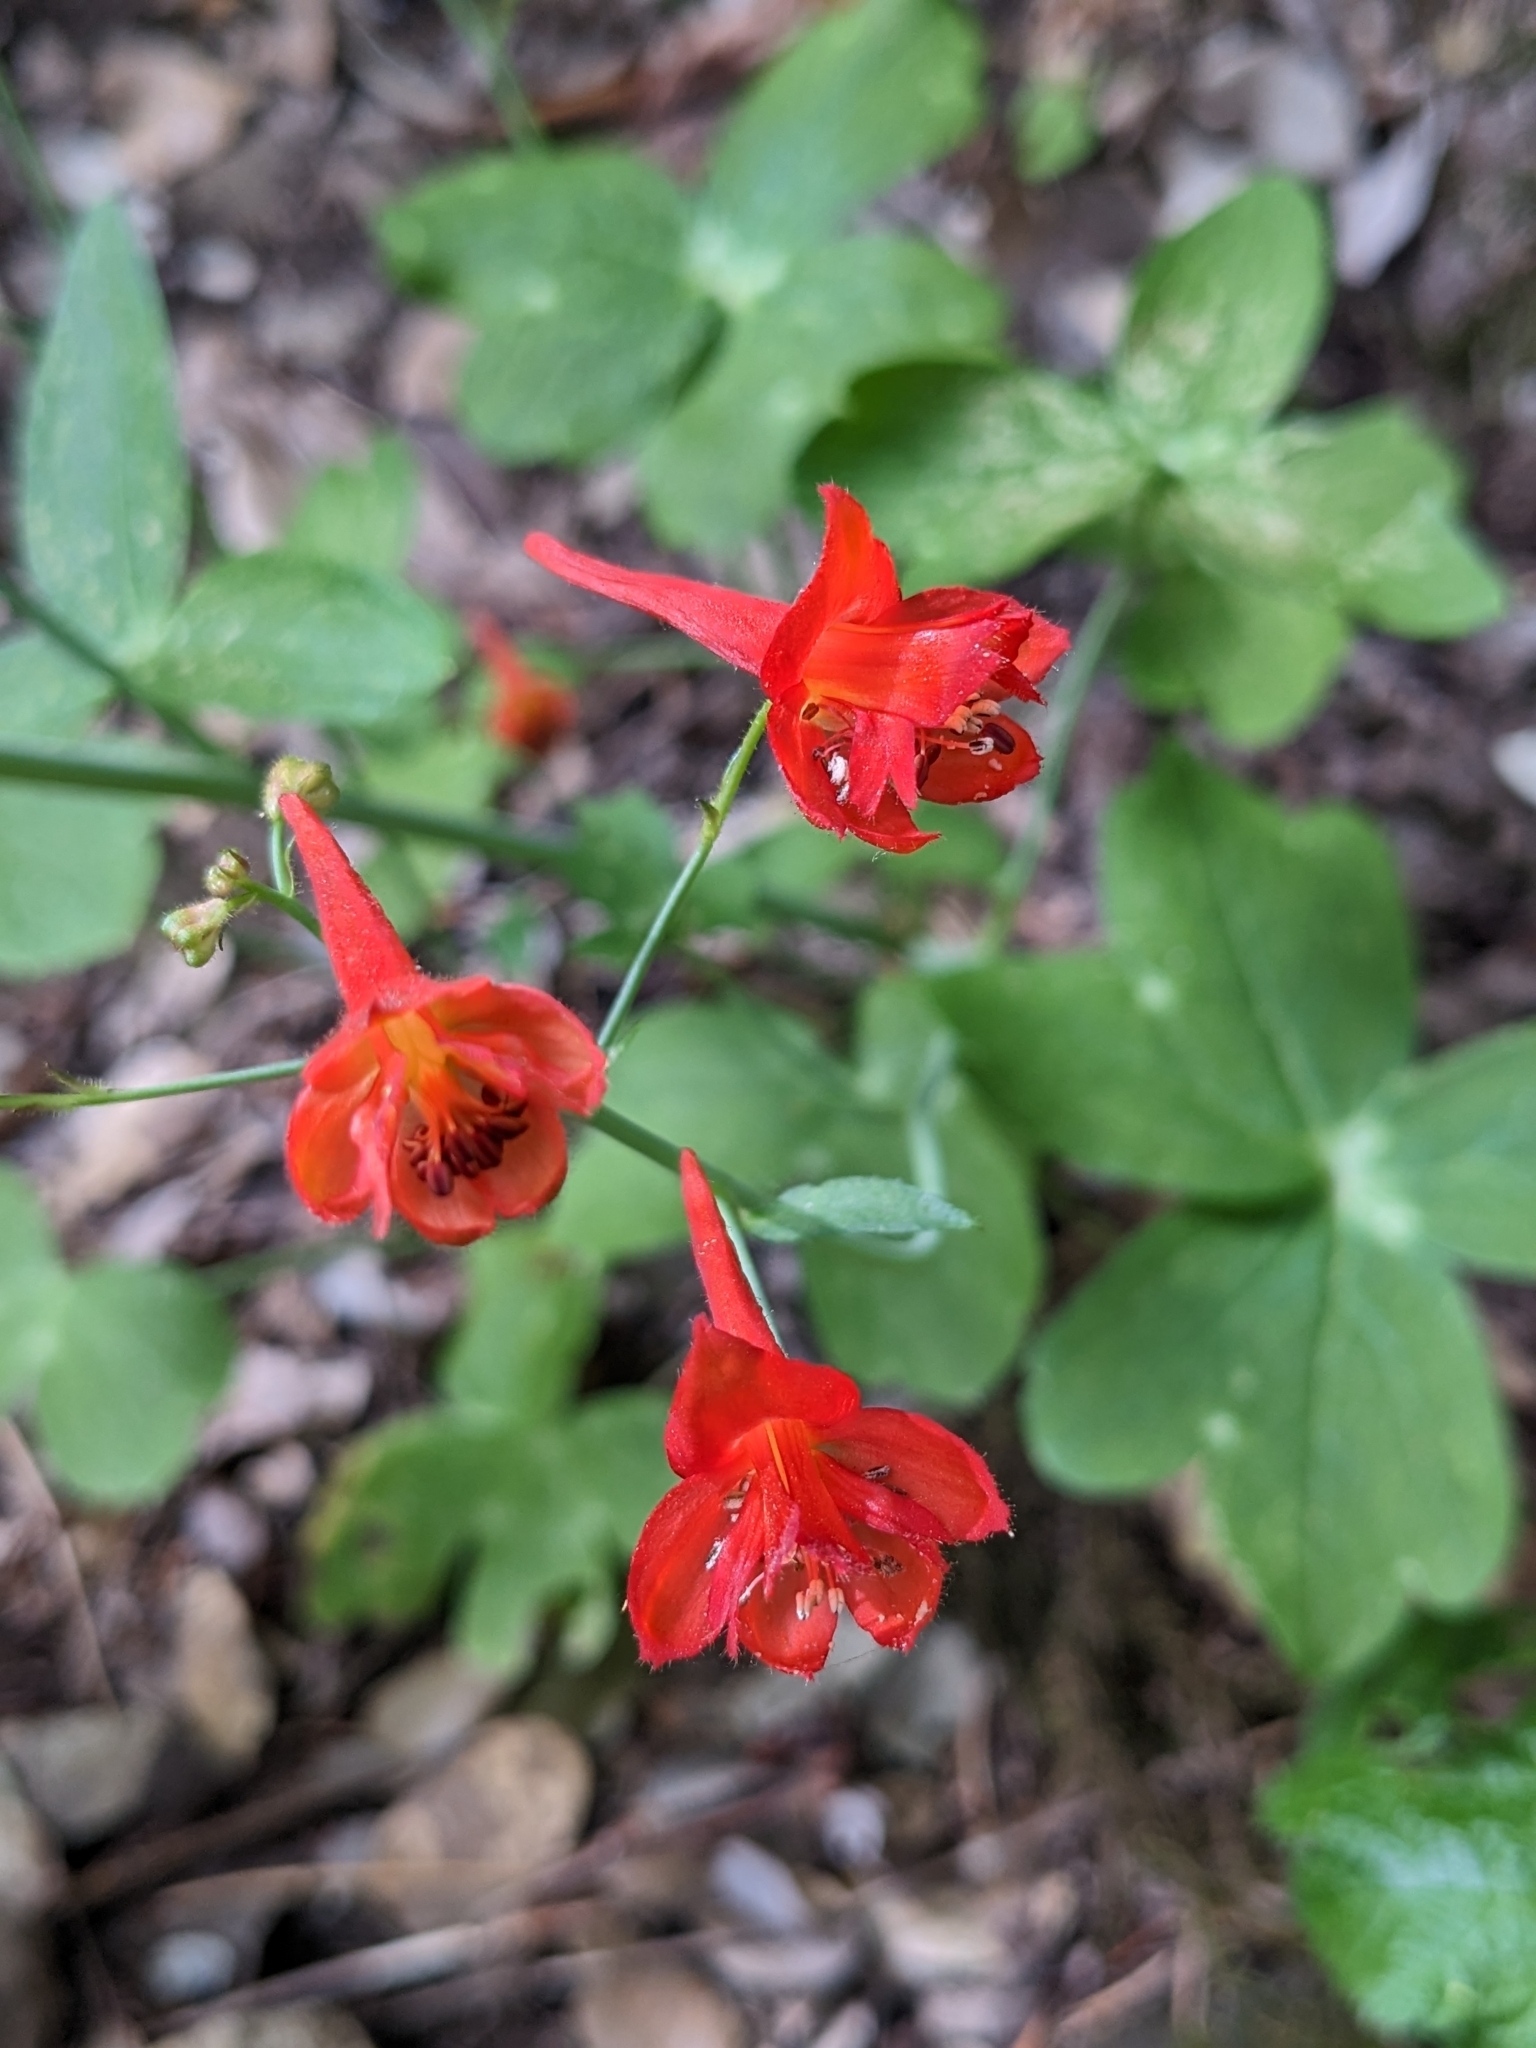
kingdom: Plantae
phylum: Tracheophyta
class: Magnoliopsida
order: Ranunculales
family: Ranunculaceae
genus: Delphinium
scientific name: Delphinium nudicaule
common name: Red larkspur
